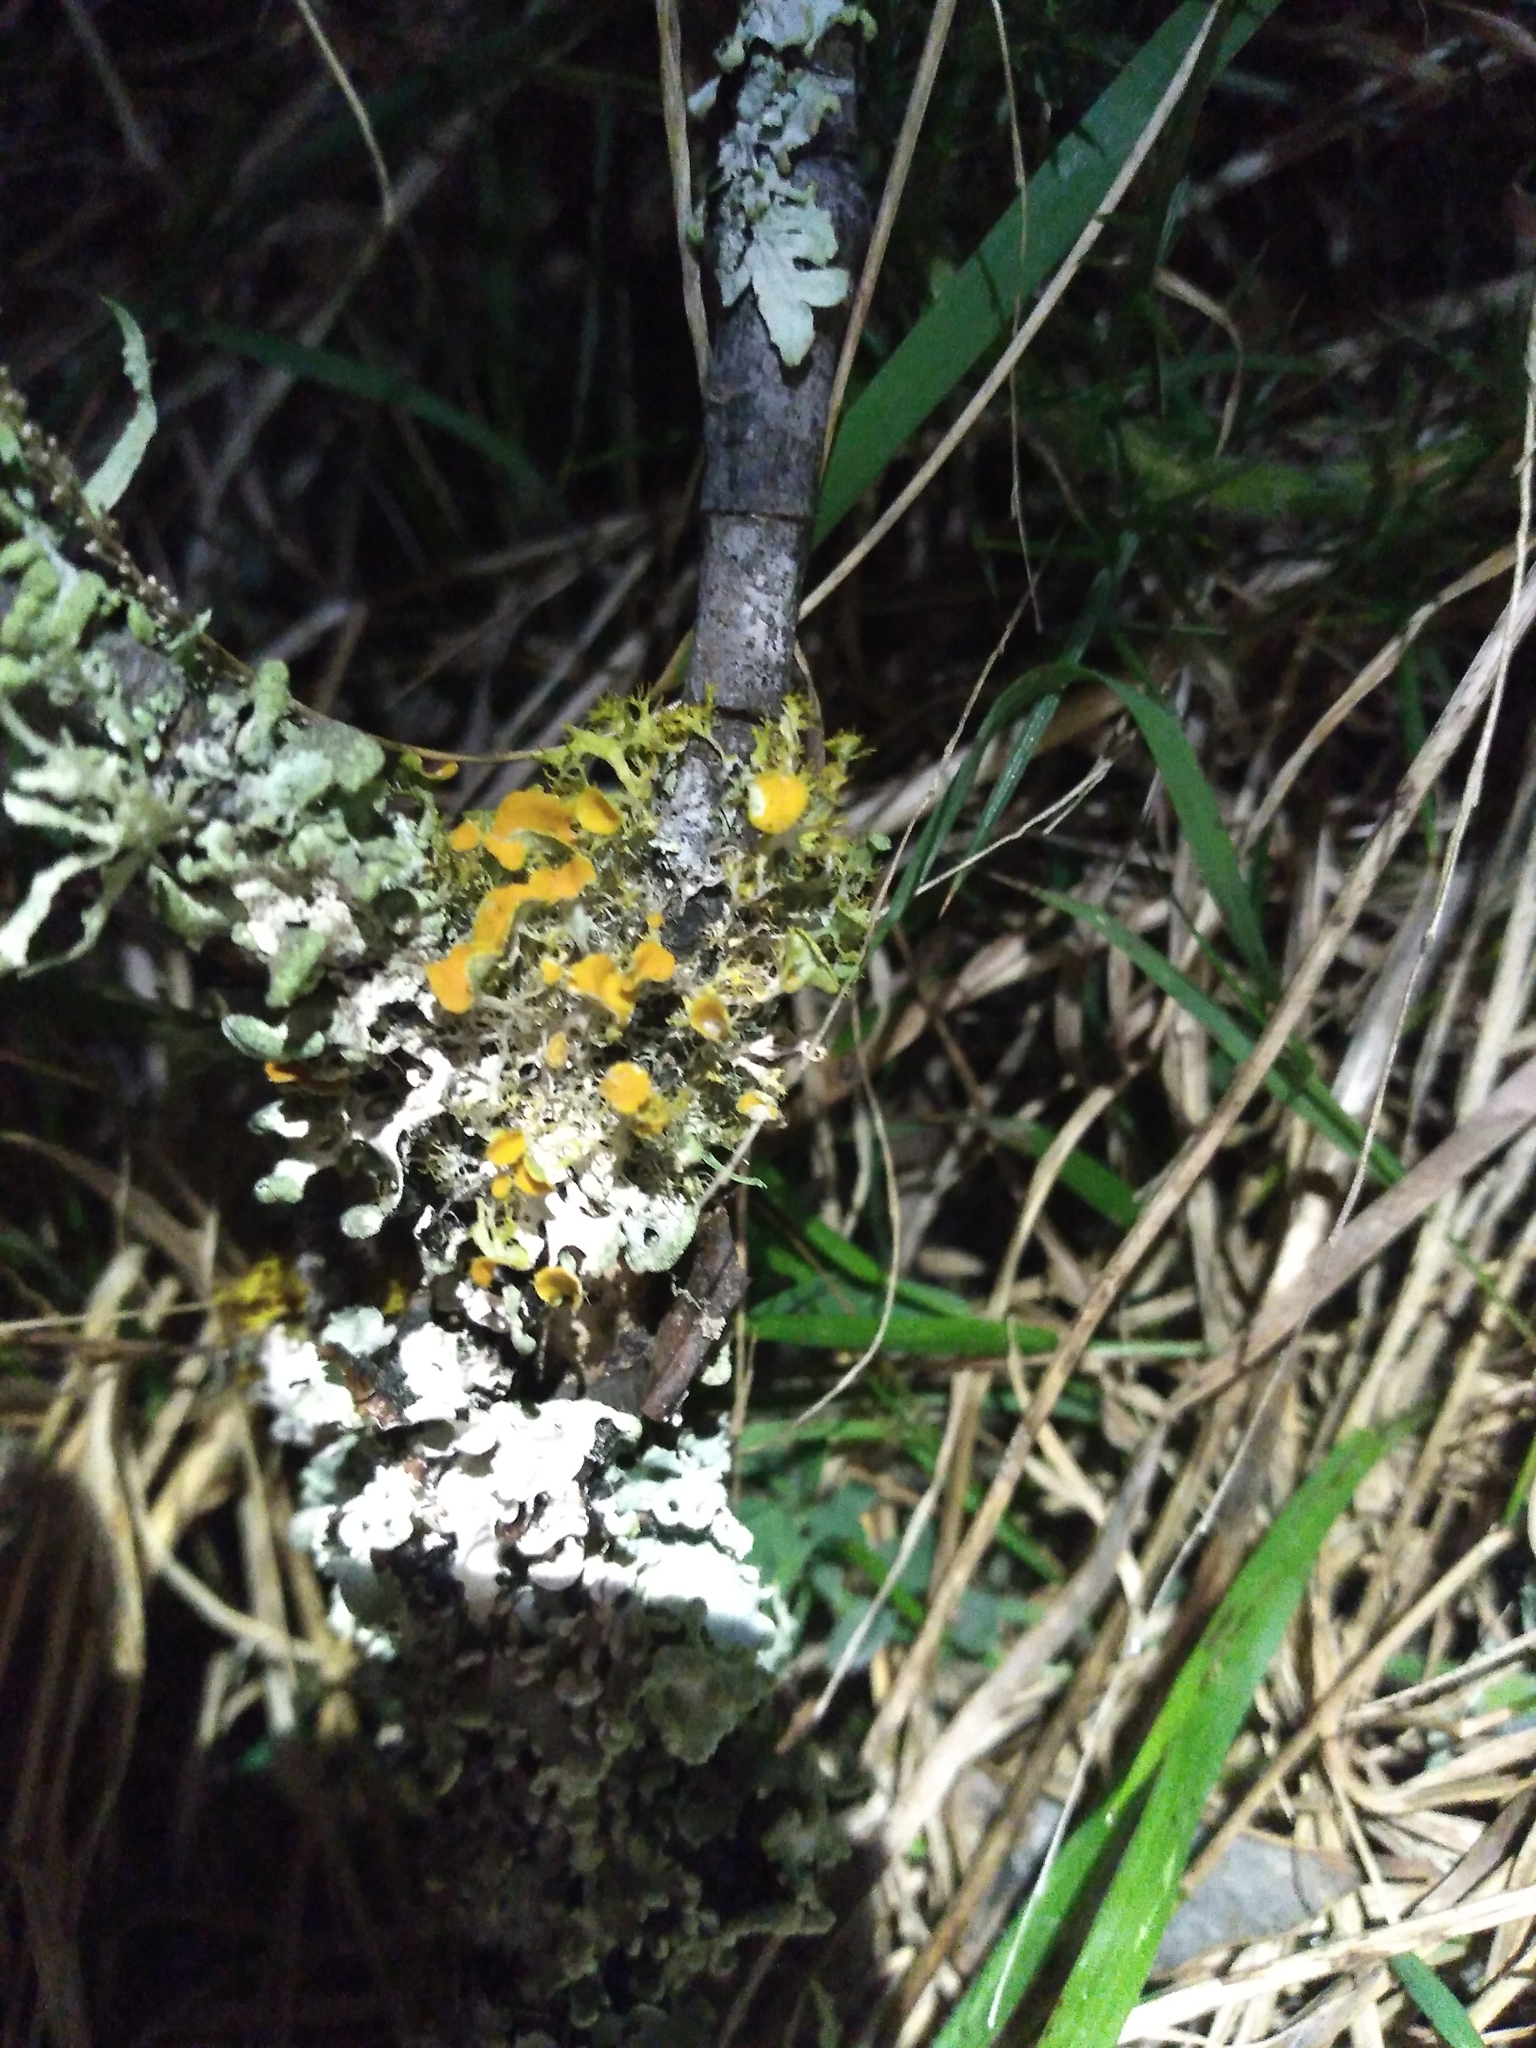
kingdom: Fungi
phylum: Ascomycota
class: Lecanoromycetes
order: Teloschistales
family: Teloschistaceae
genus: Niorma
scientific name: Niorma chrysophthalma
